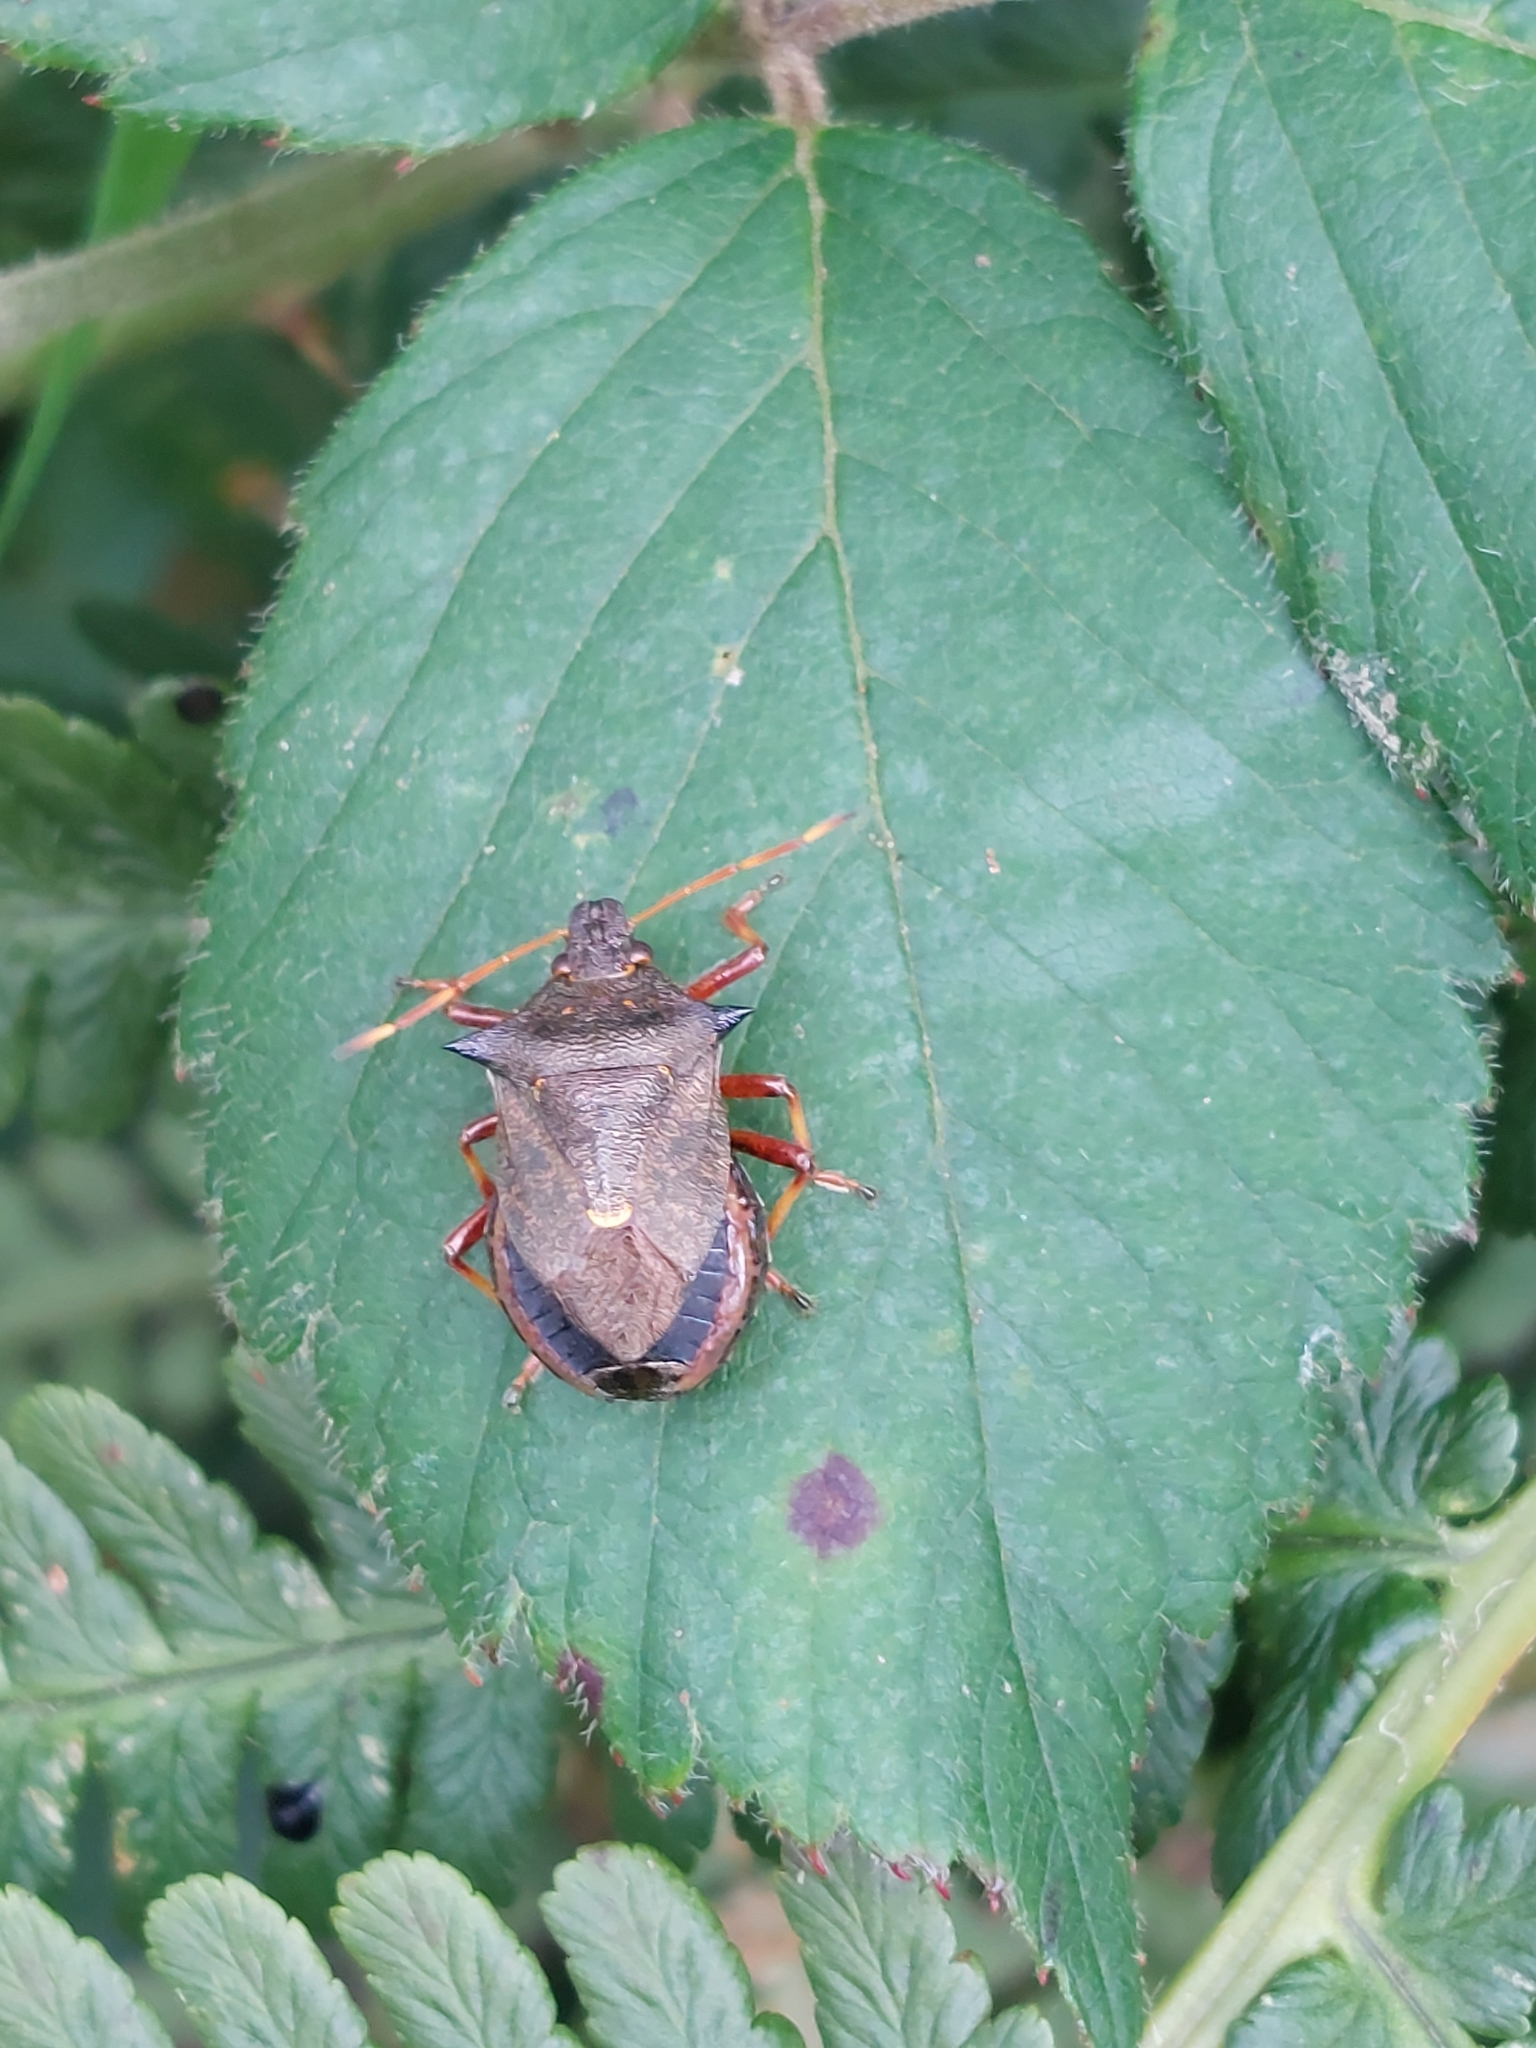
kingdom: Animalia
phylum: Arthropoda
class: Insecta
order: Hemiptera
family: Pentatomidae
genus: Picromerus
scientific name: Picromerus bidens
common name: Spiked shieldbug
